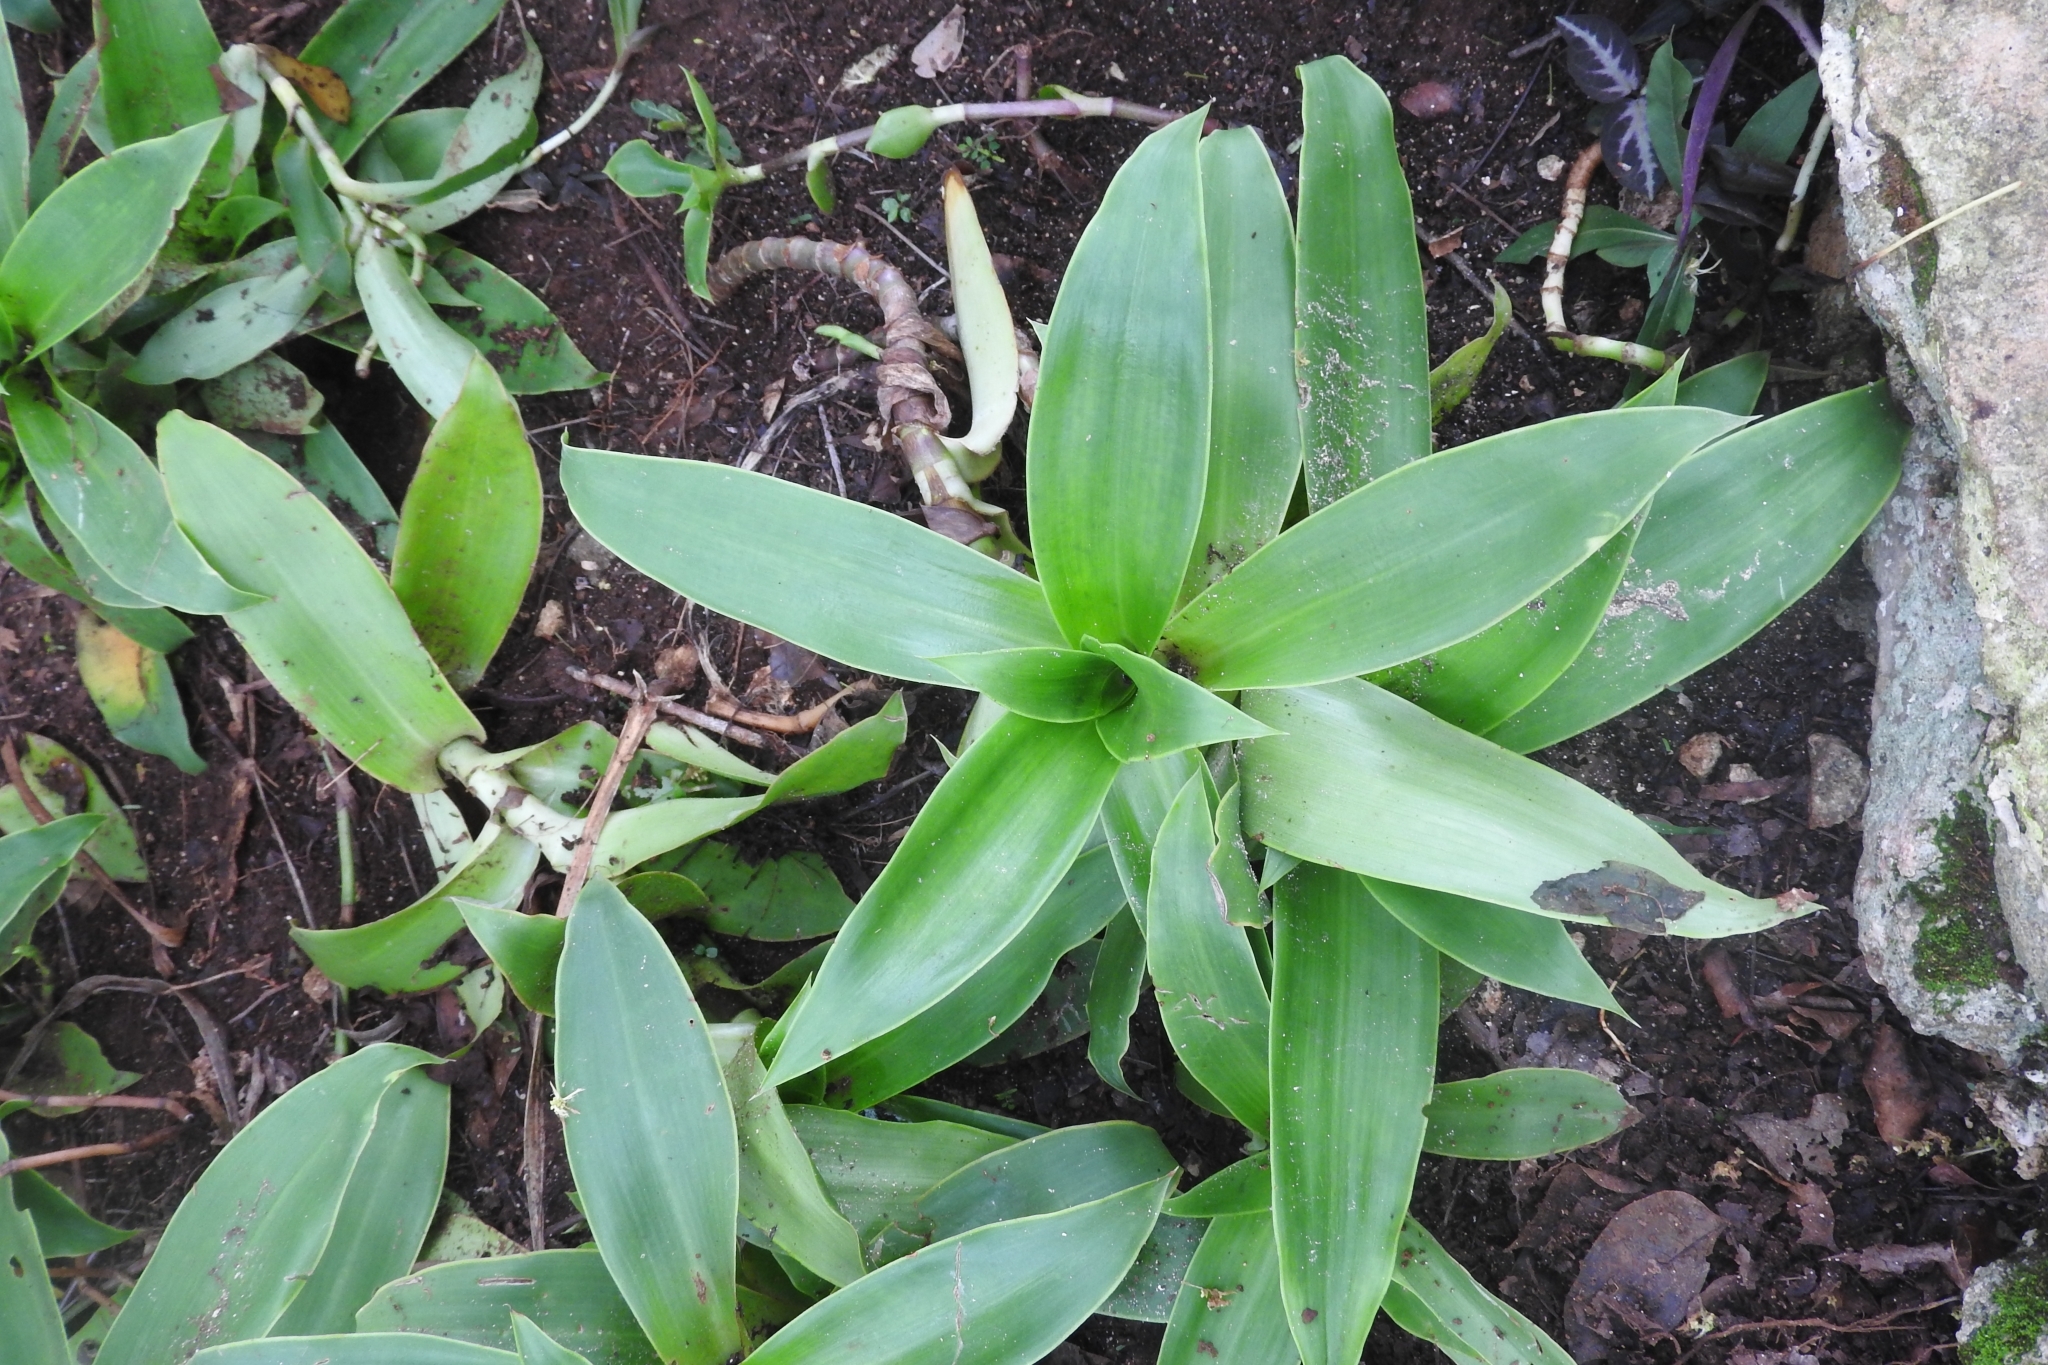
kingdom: Plantae
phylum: Tracheophyta
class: Liliopsida
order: Commelinales
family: Commelinaceae
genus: Callisia
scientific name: Callisia fragrans
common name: Basketplant
